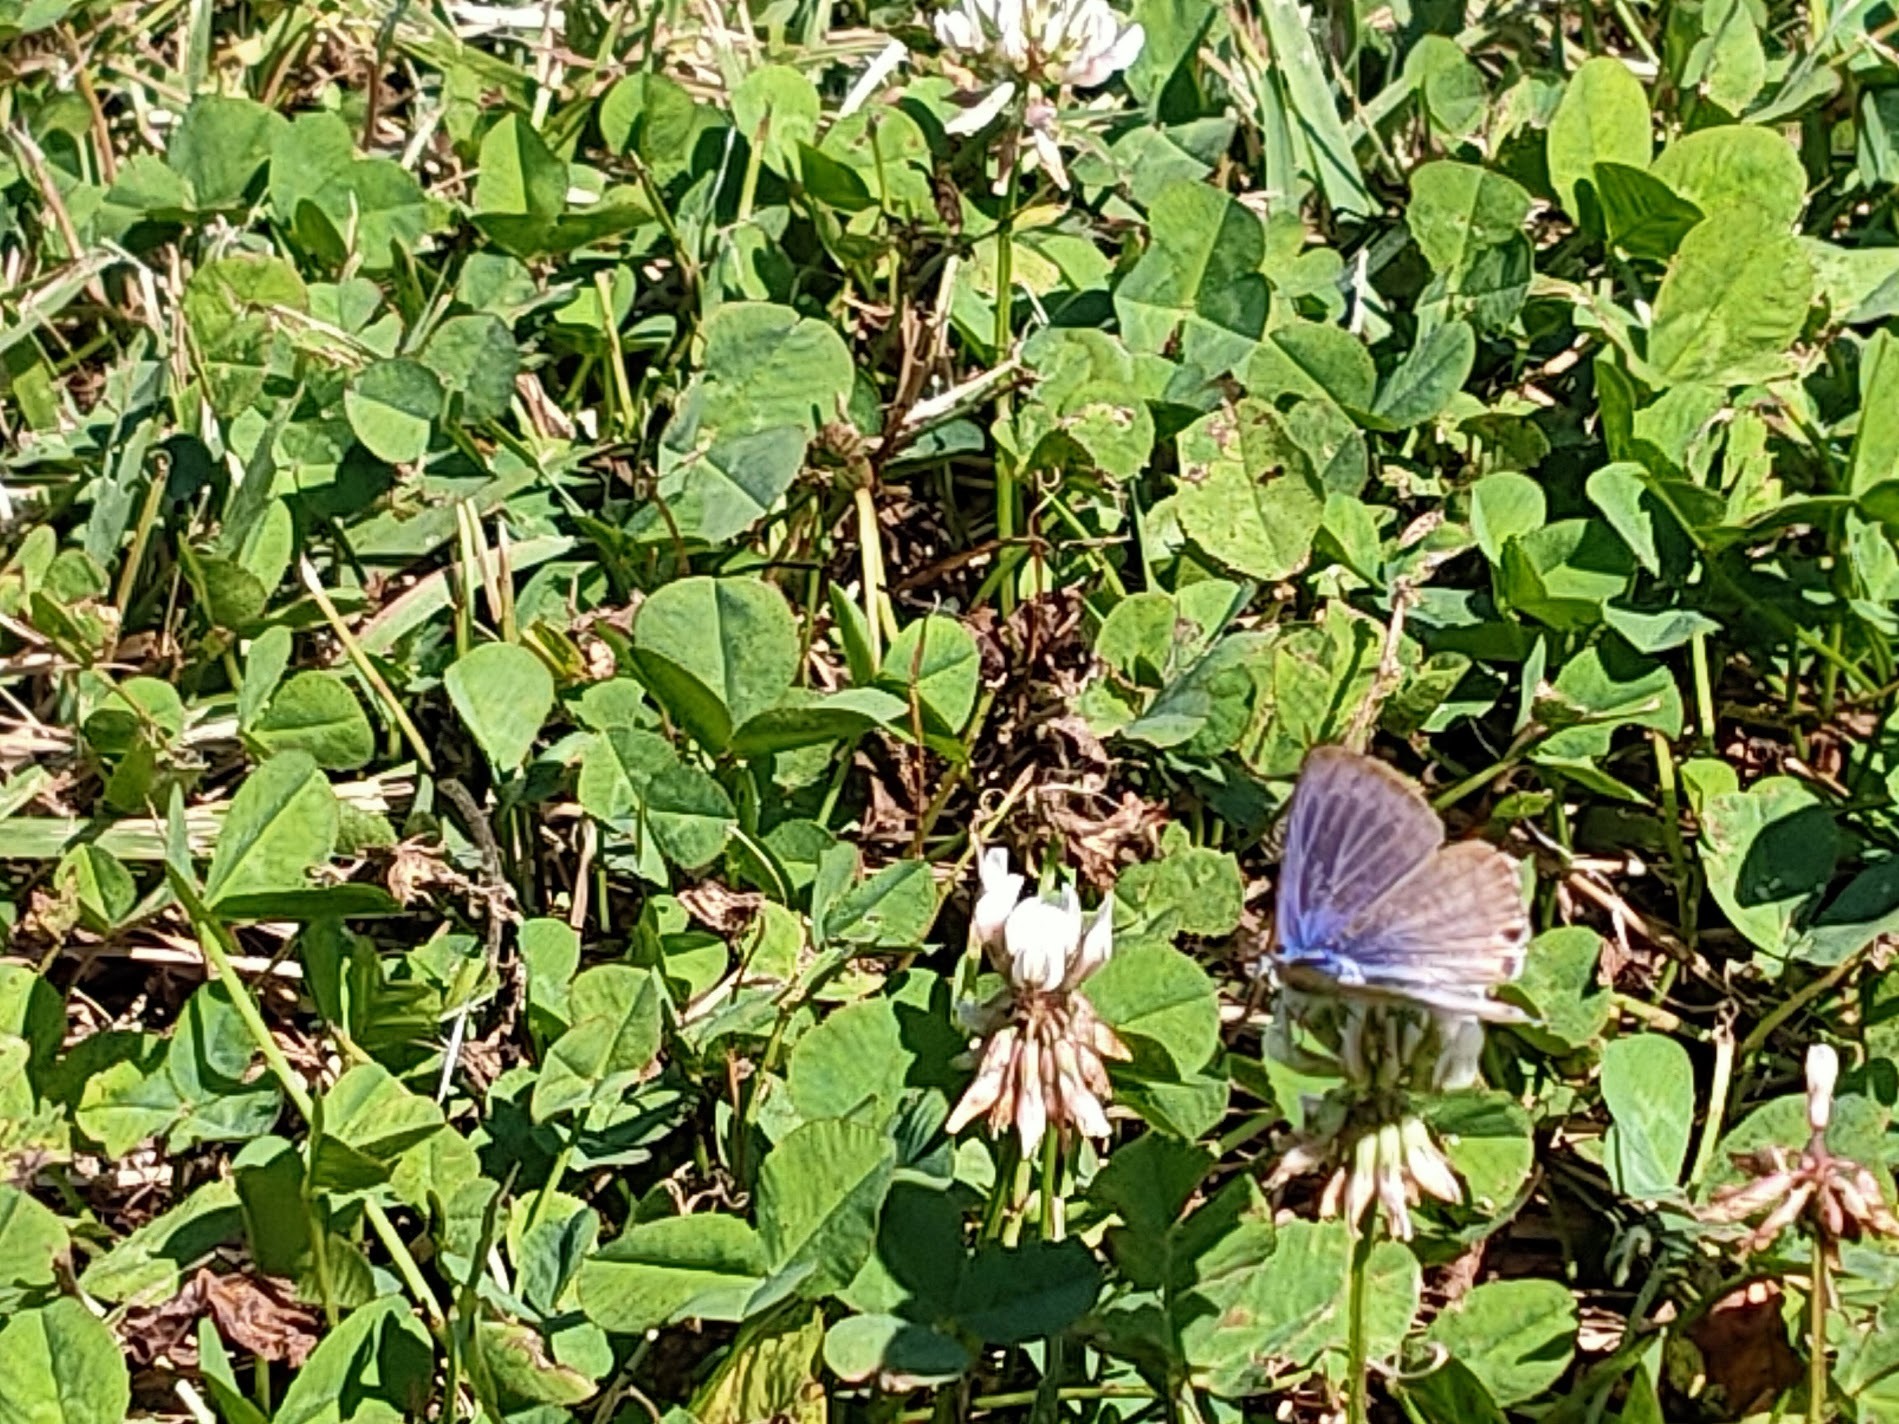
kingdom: Animalia
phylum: Arthropoda
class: Insecta
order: Lepidoptera
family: Lycaenidae
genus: Lampides
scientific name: Lampides boeticus
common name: Long-tailed blue
